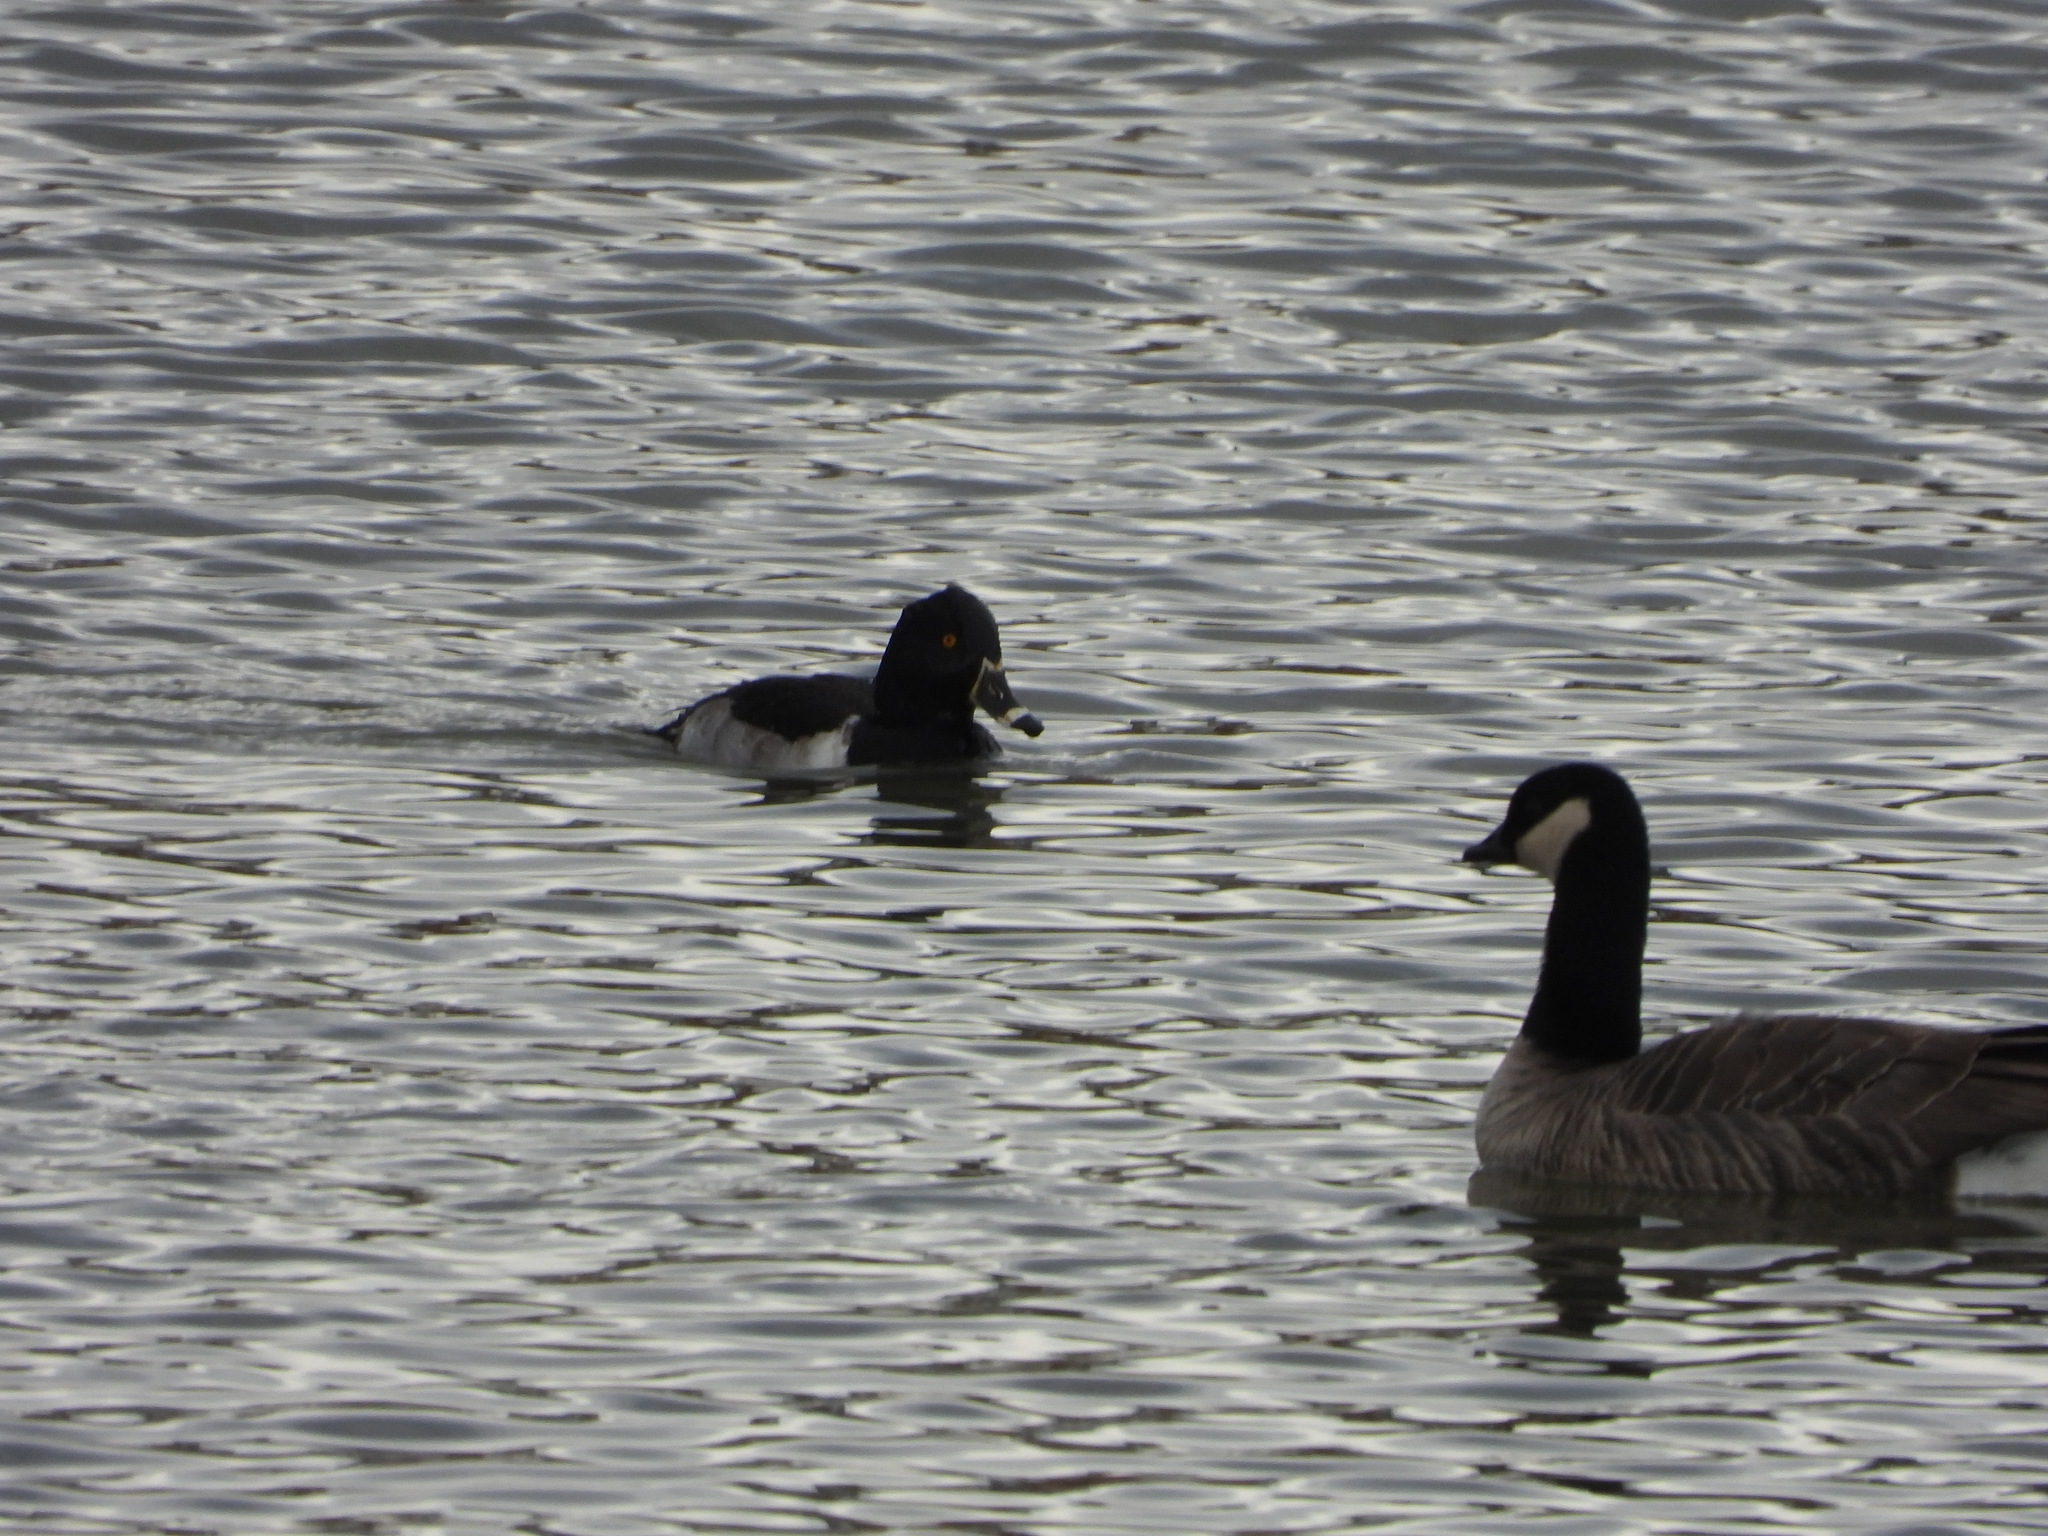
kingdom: Animalia
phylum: Chordata
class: Aves
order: Anseriformes
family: Anatidae
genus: Aythya
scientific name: Aythya collaris
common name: Ring-necked duck
